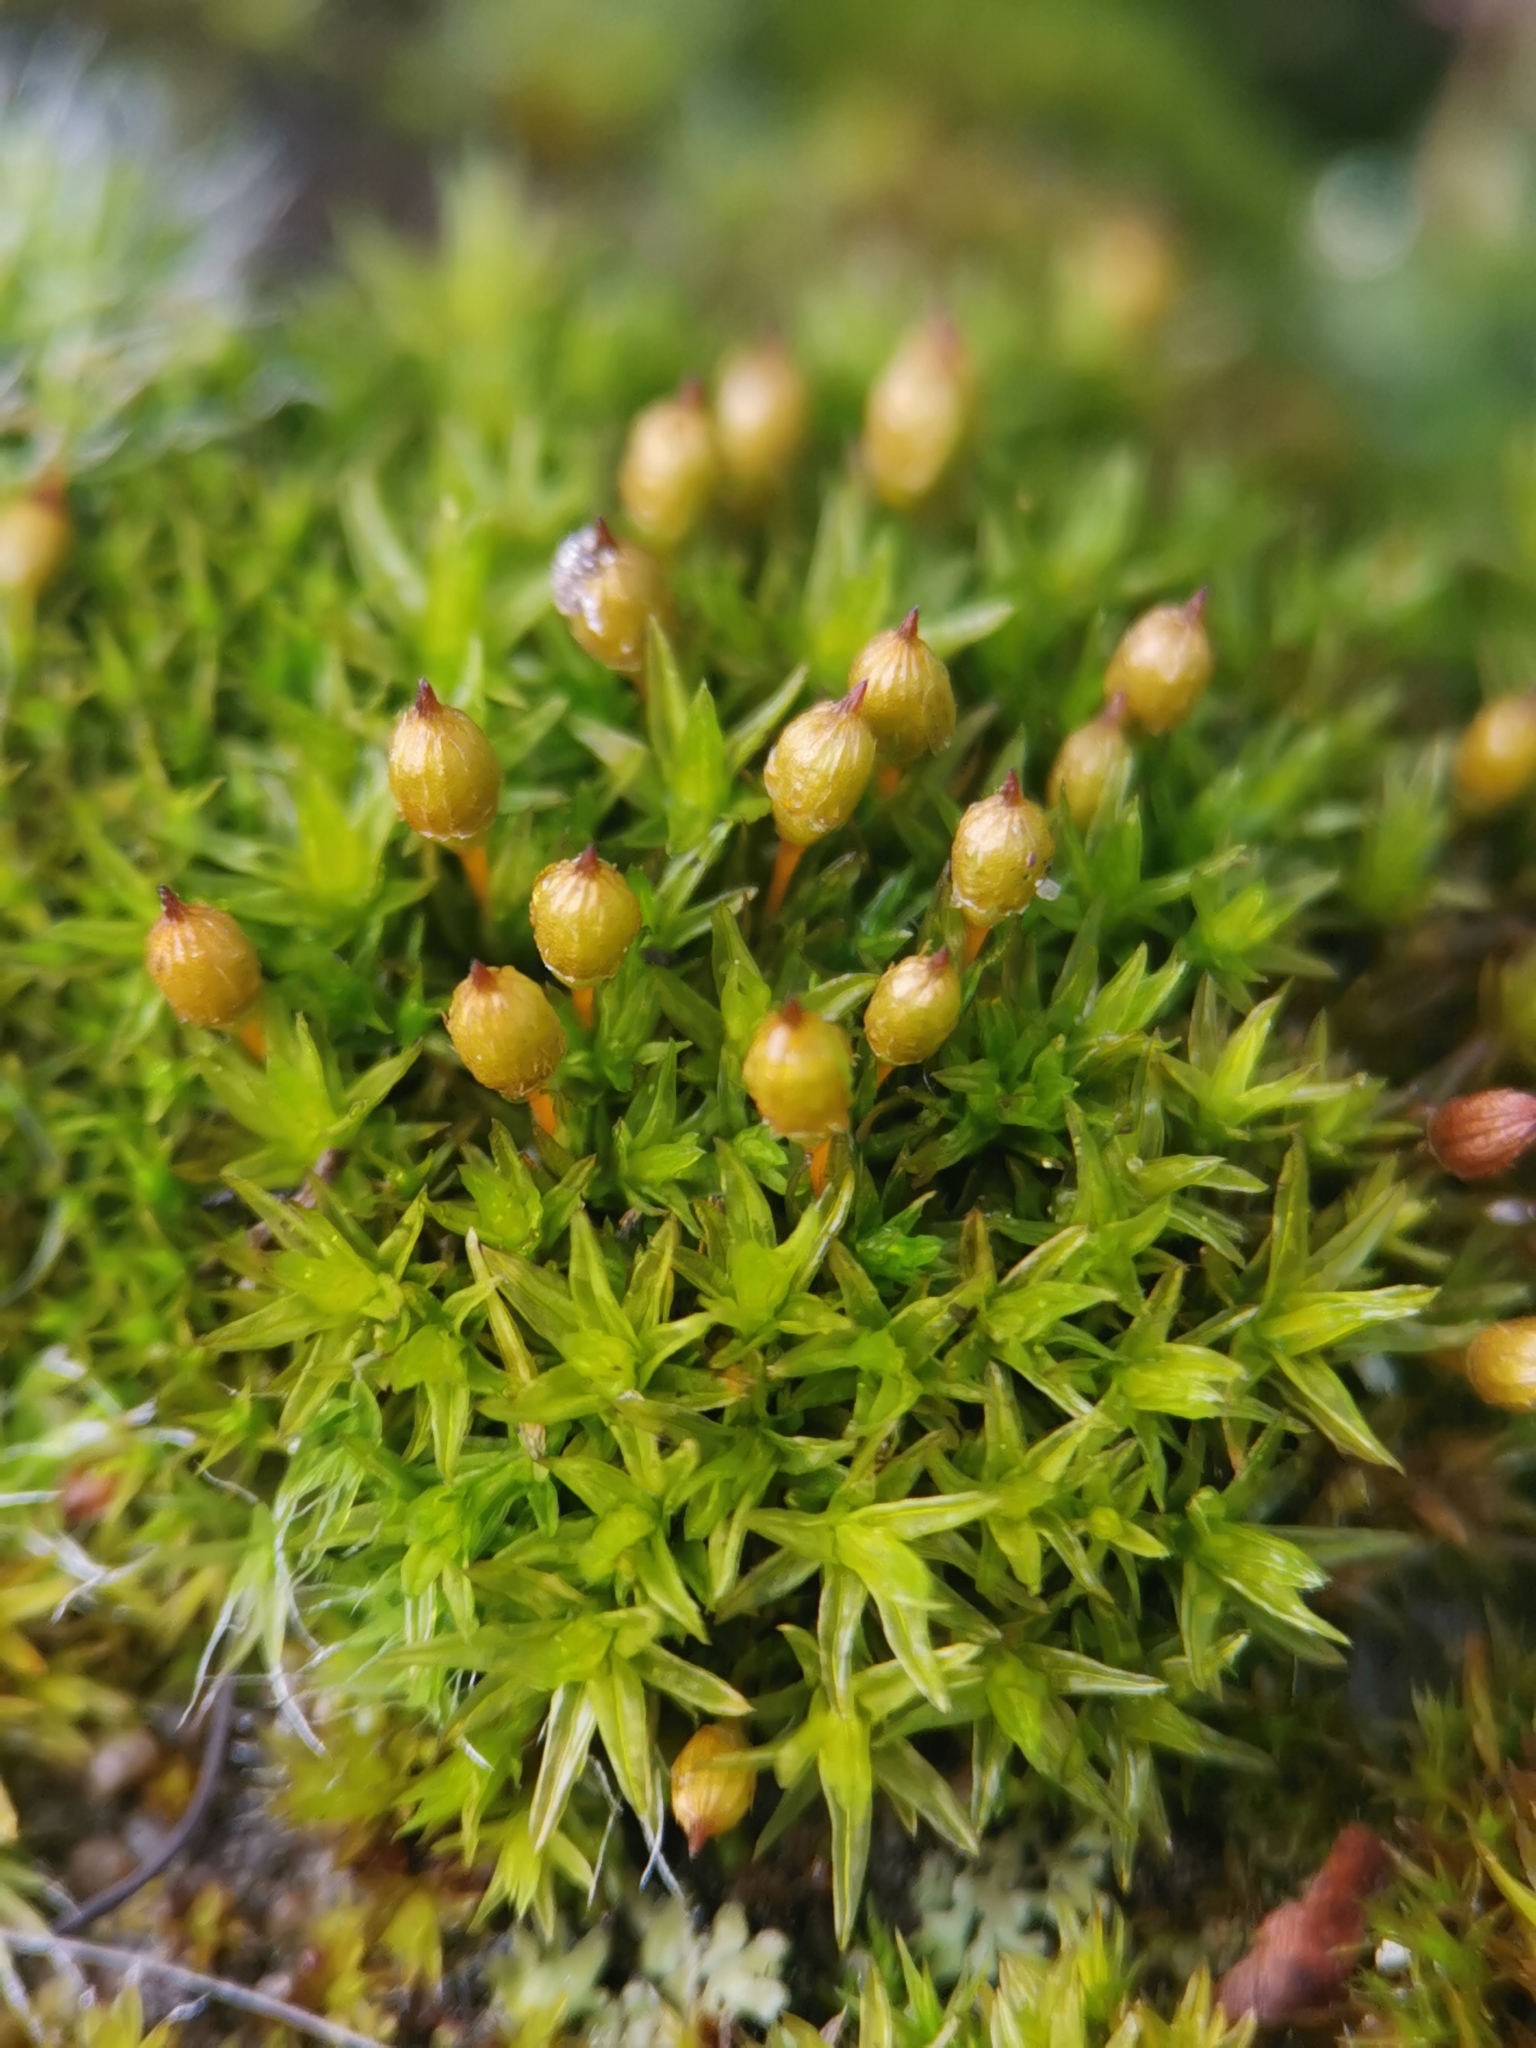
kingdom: Plantae
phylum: Bryophyta
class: Bryopsida
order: Orthotrichales
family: Orthotrichaceae
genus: Orthotrichum
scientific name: Orthotrichum anomalum
